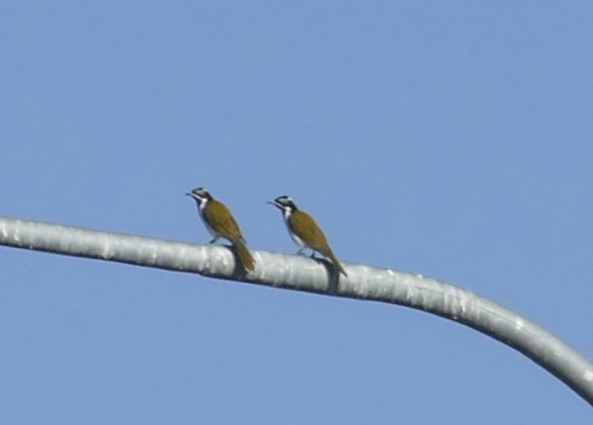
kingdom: Animalia
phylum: Chordata
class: Aves
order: Passeriformes
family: Meliphagidae
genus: Entomyzon
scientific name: Entomyzon cyanotis
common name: Blue-faced honeyeater
